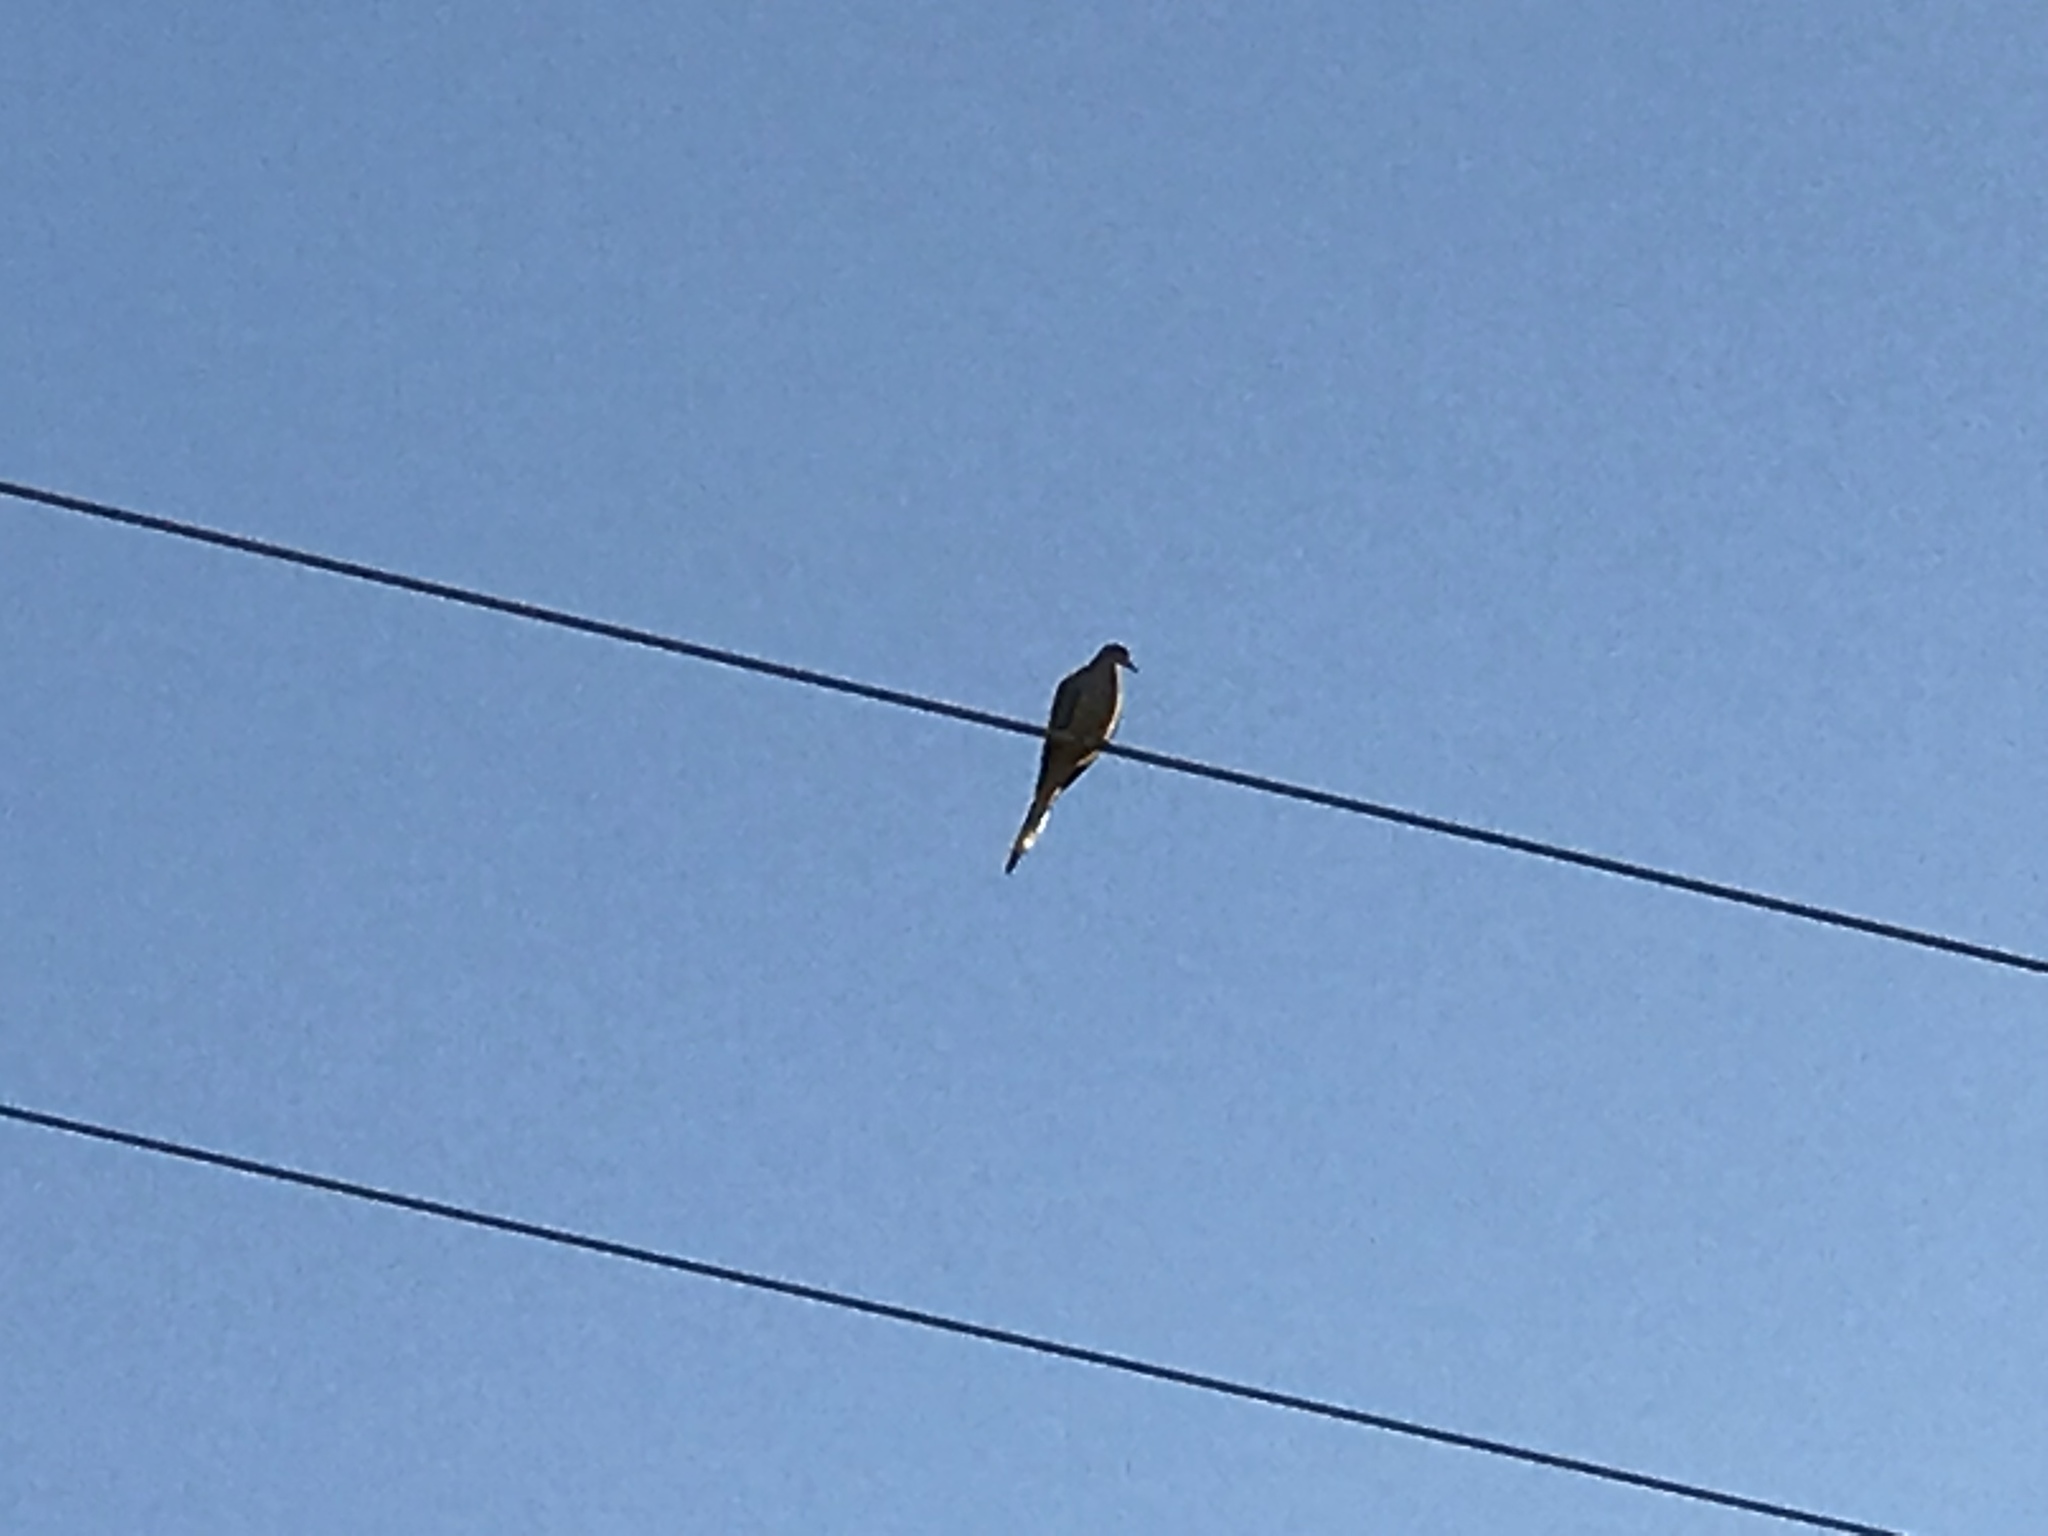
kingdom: Animalia
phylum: Chordata
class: Aves
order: Columbiformes
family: Columbidae
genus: Zenaida
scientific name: Zenaida macroura
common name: Mourning dove
